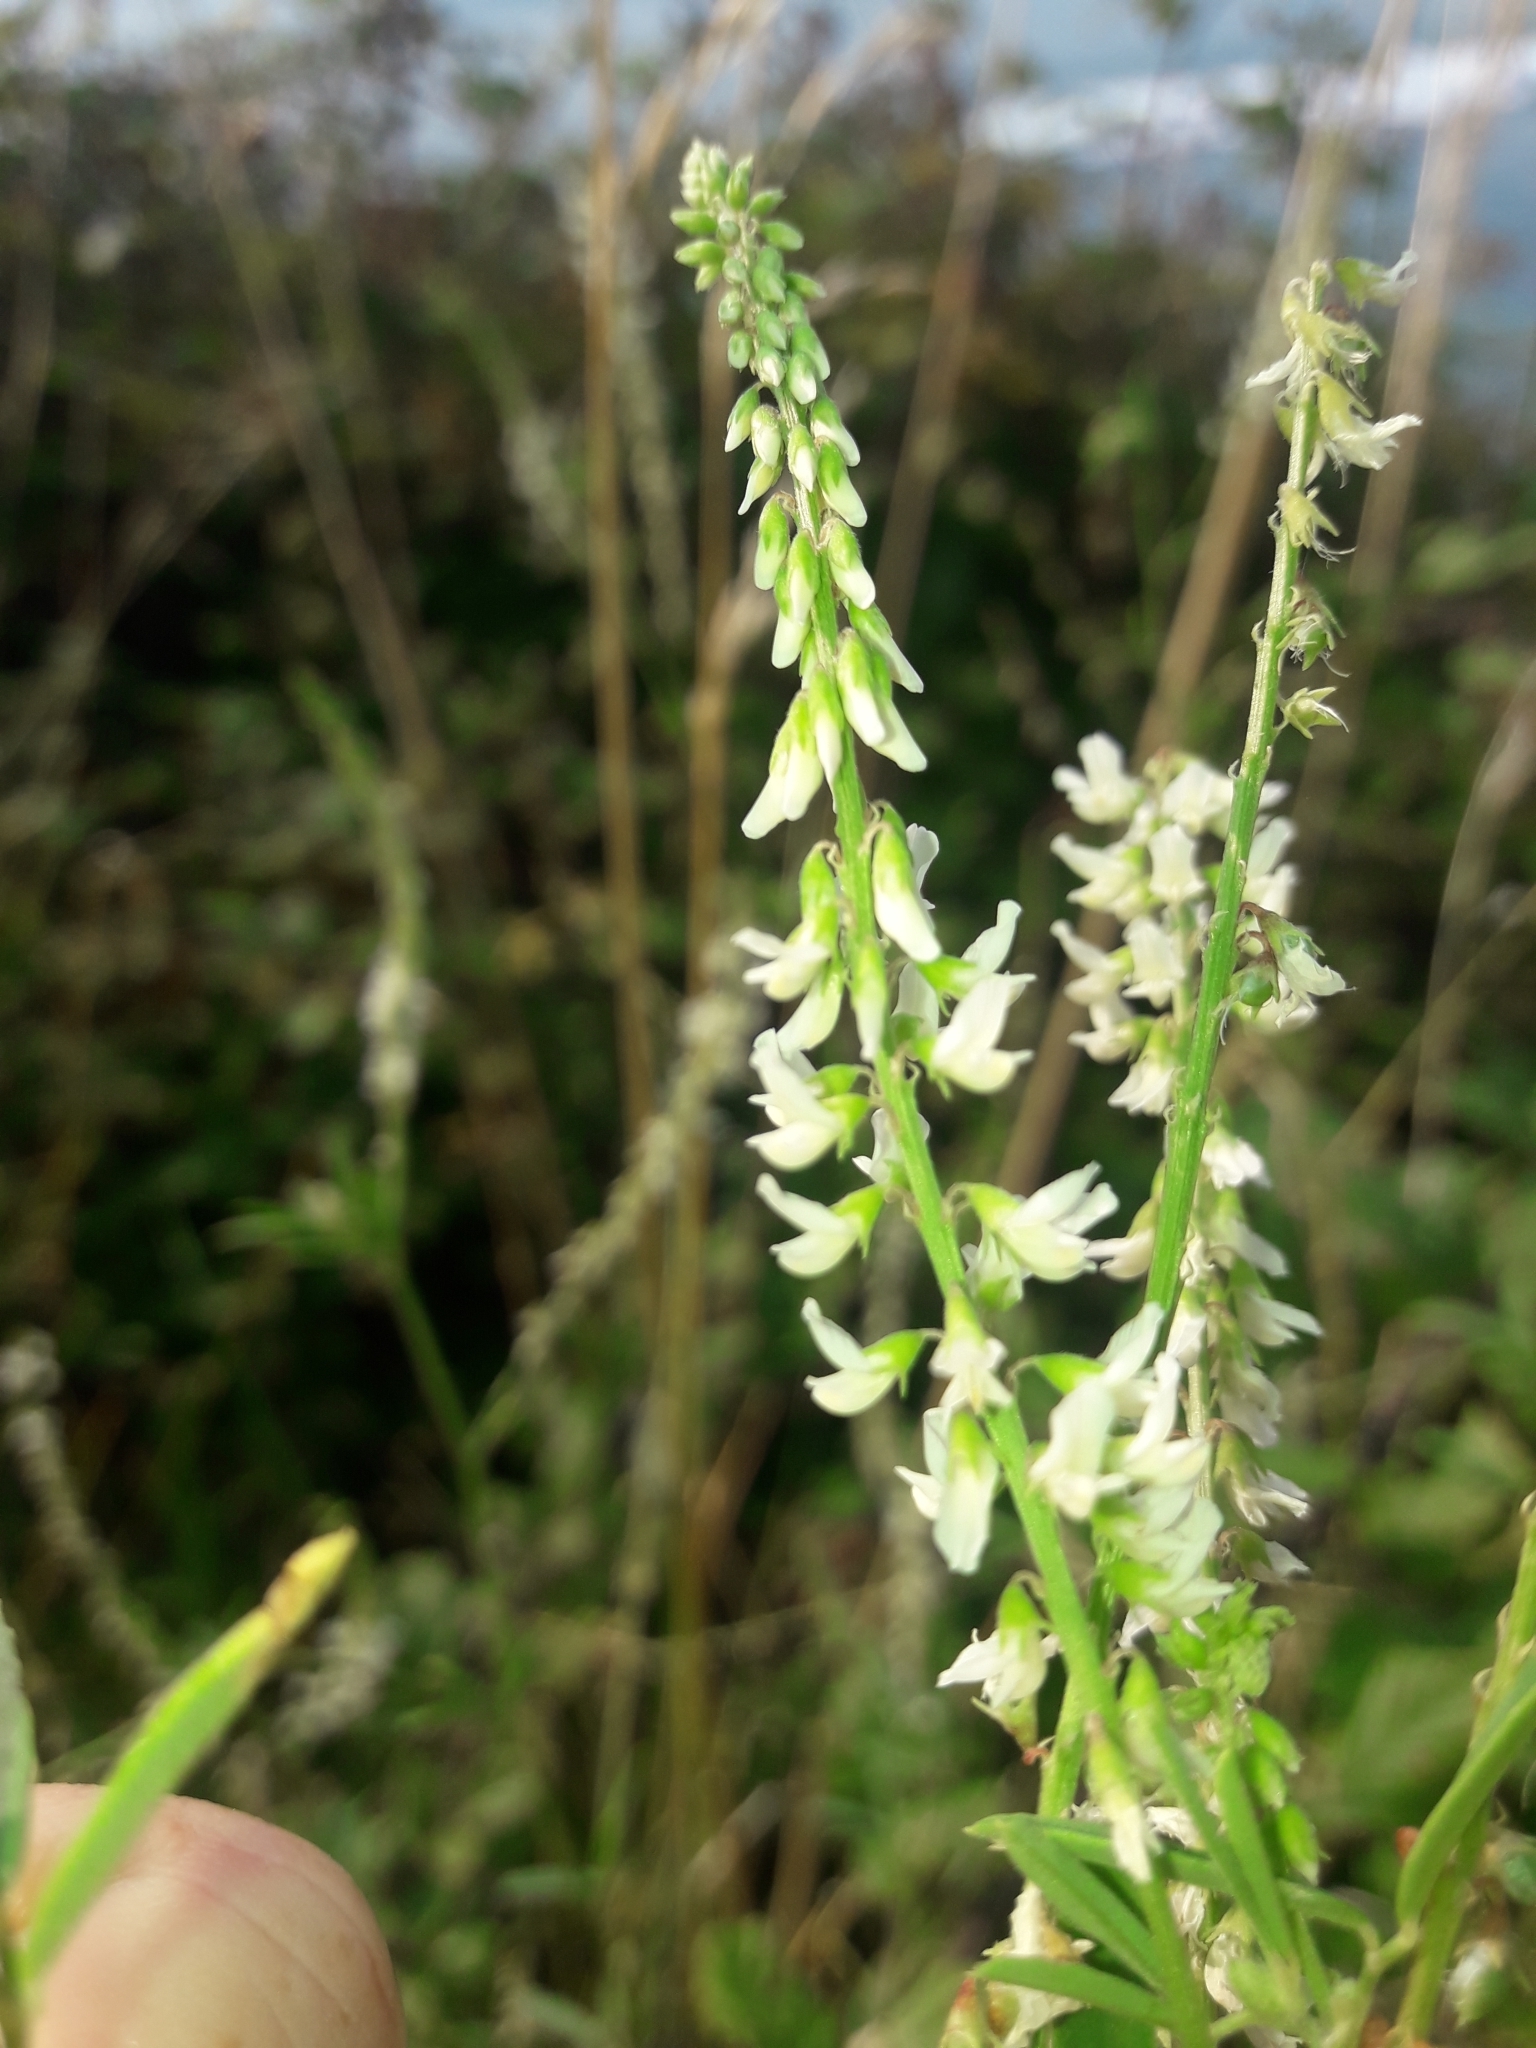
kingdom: Plantae
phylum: Tracheophyta
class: Magnoliopsida
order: Fabales
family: Fabaceae
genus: Melilotus
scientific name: Melilotus albus
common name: White melilot
